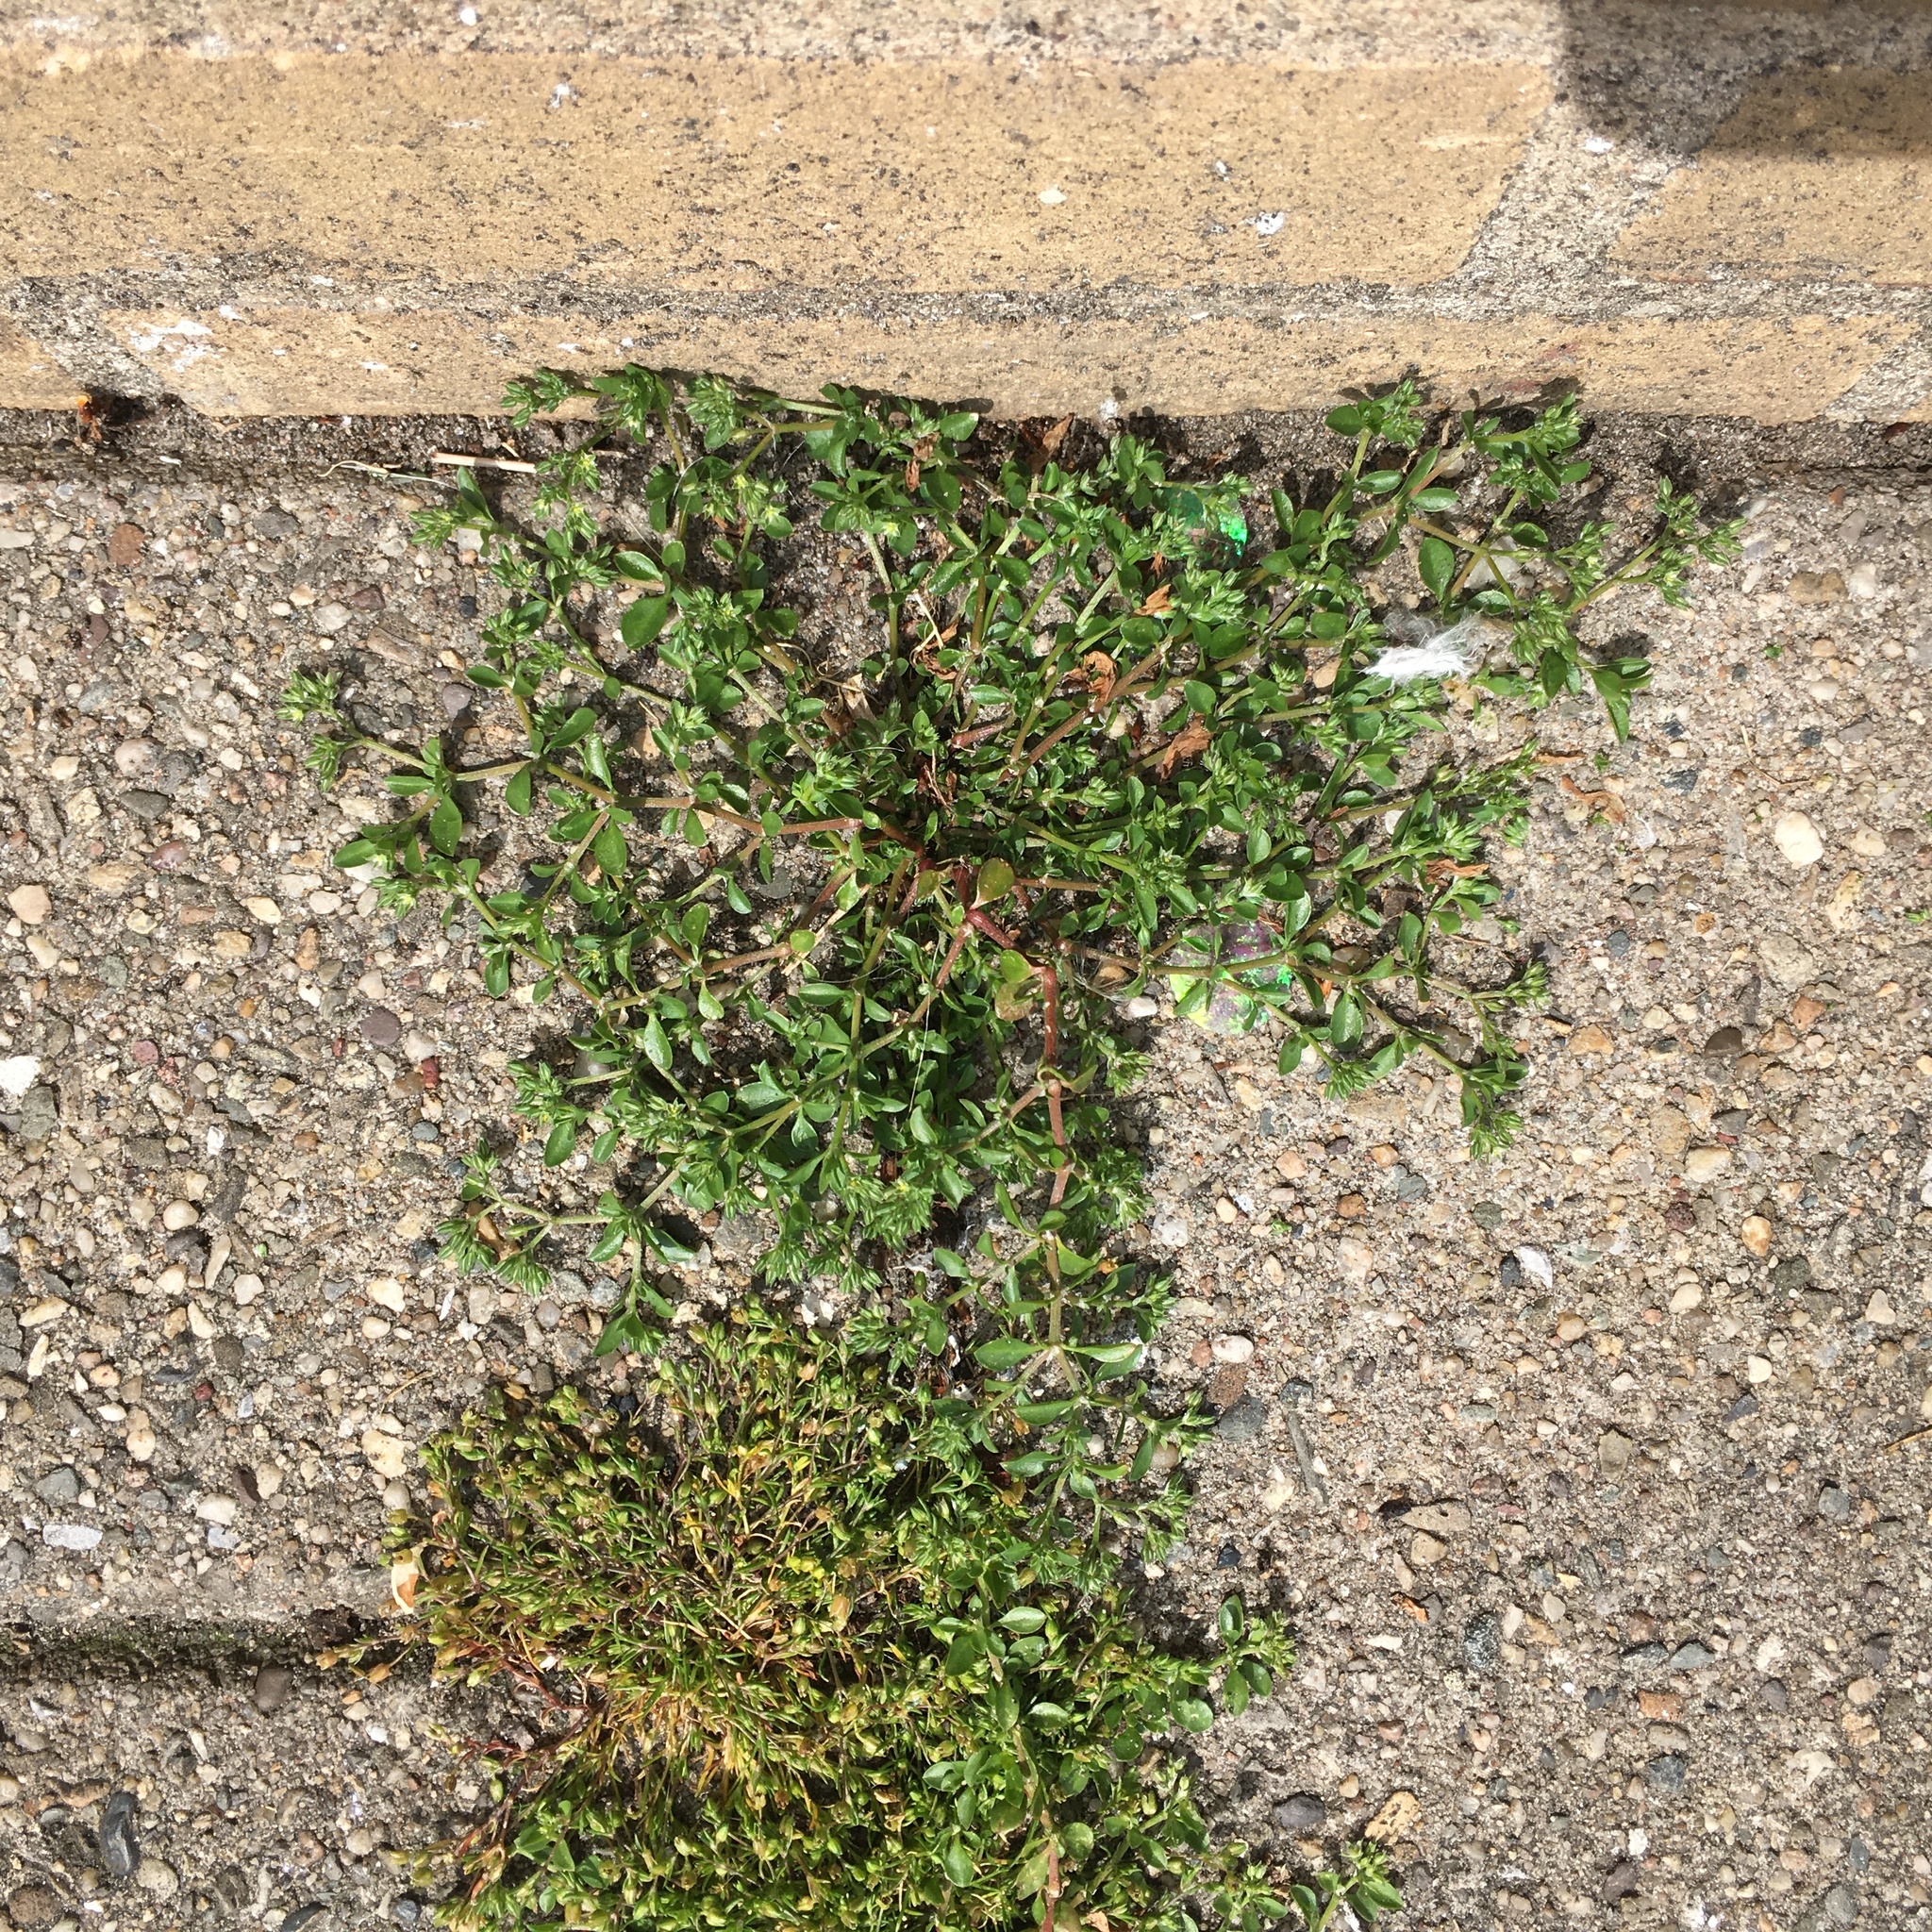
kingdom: Plantae
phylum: Tracheophyta
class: Magnoliopsida
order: Caryophyllales
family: Caryophyllaceae
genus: Polycarpon
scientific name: Polycarpon tetraphyllum
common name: Four-leaved all-seed
